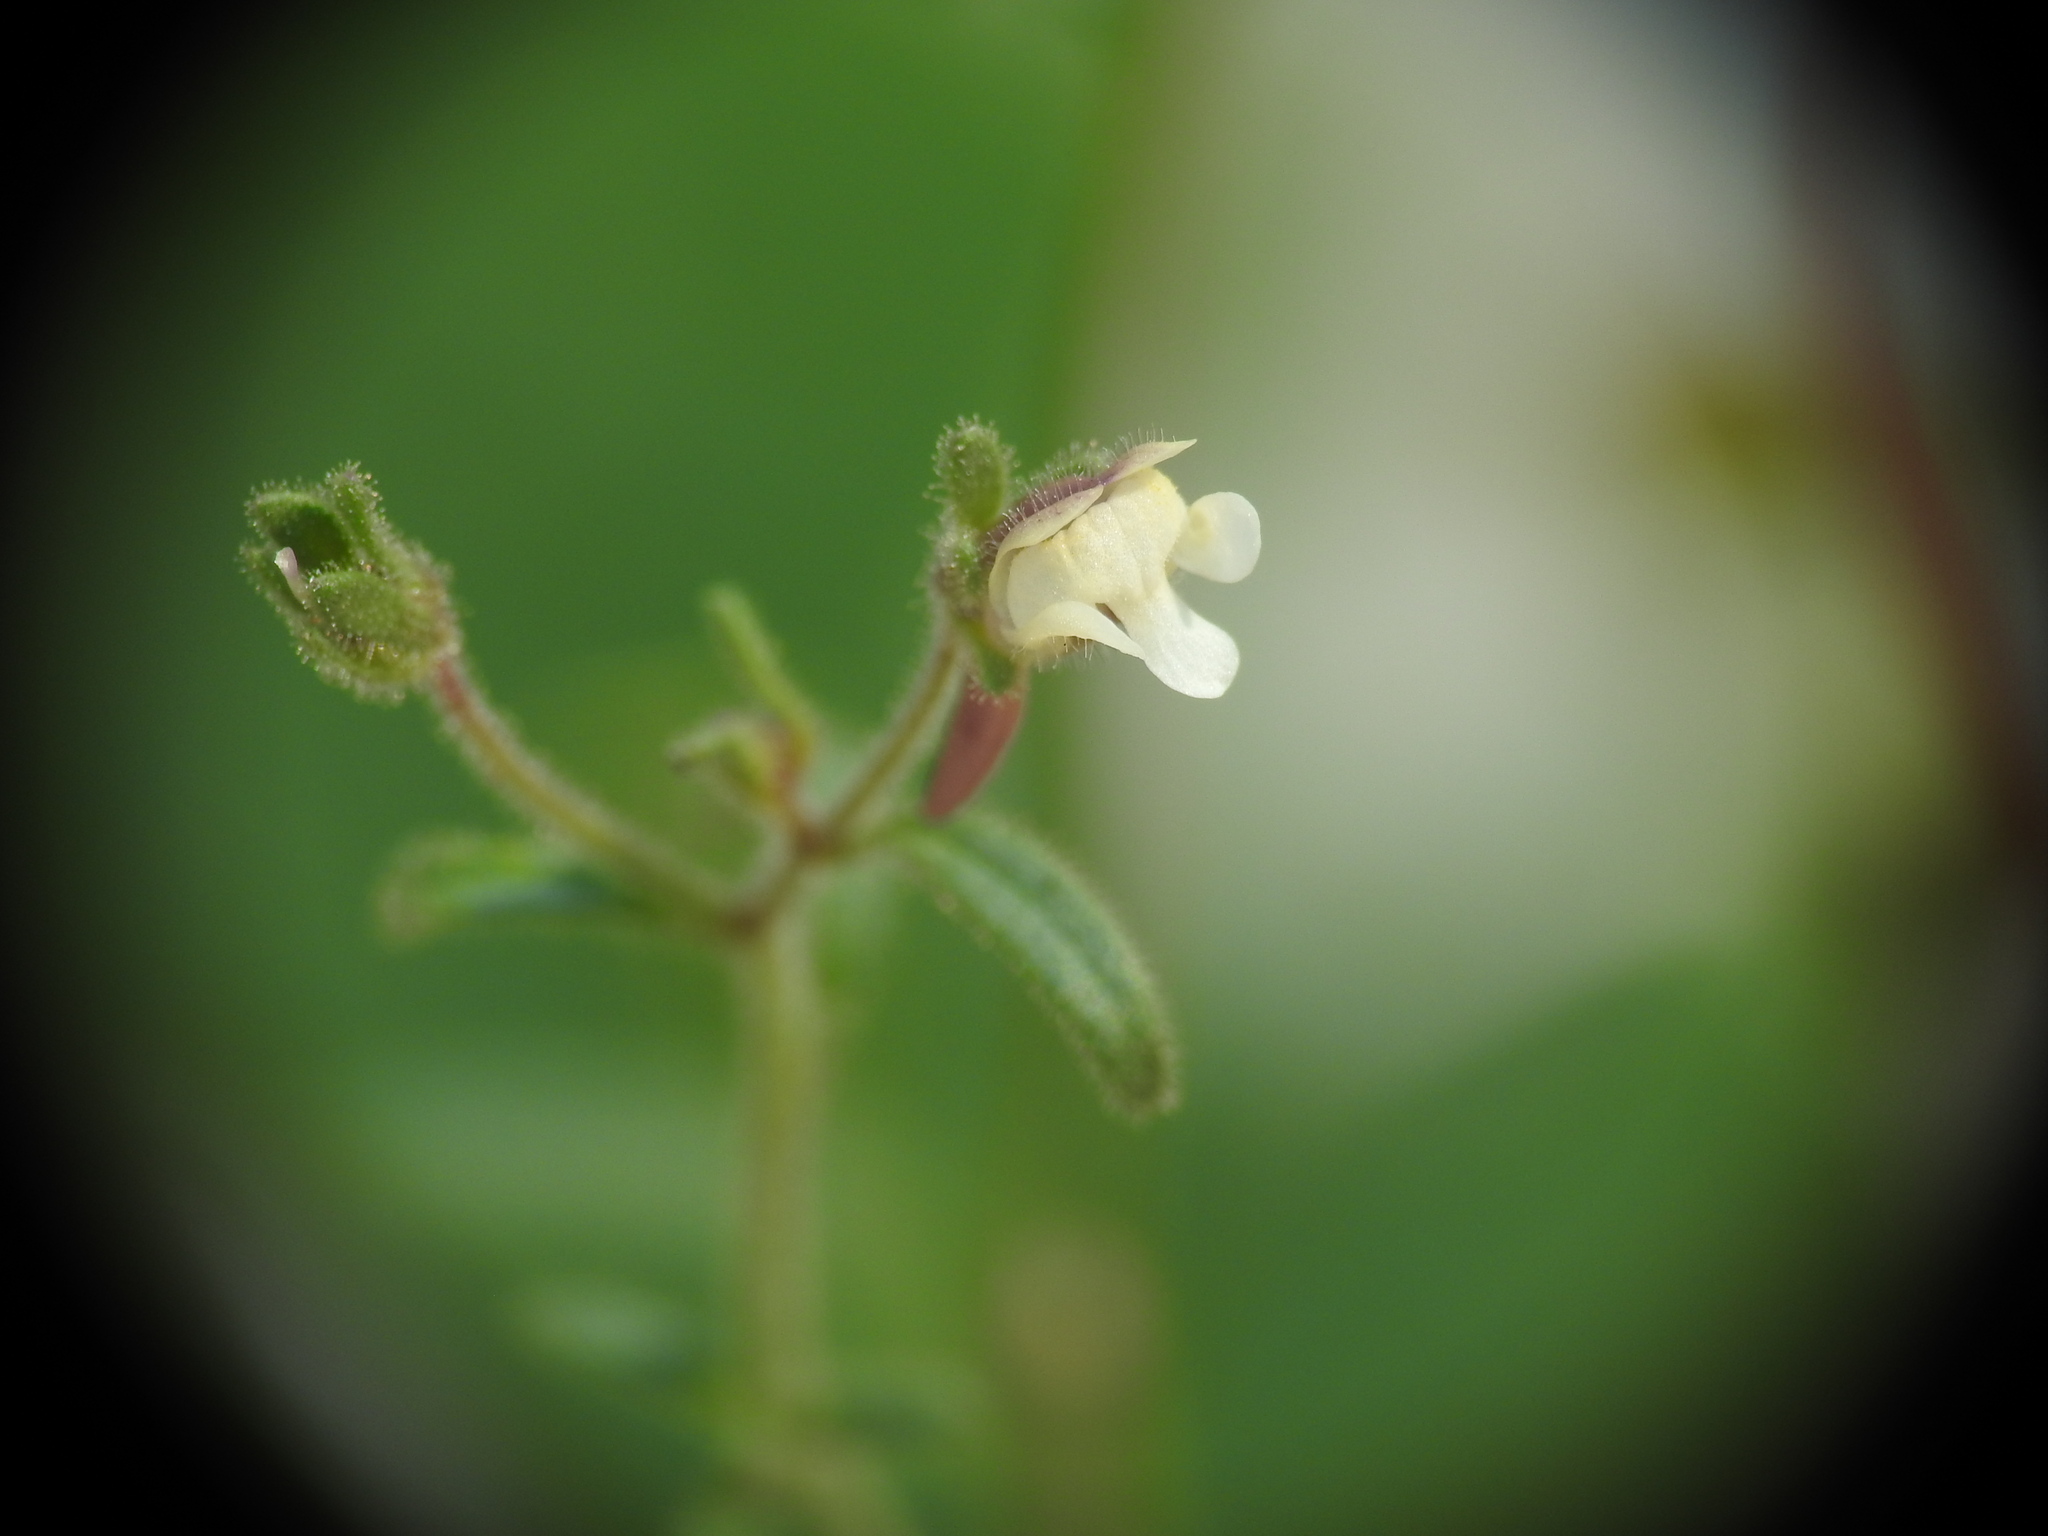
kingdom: Plantae
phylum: Tracheophyta
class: Magnoliopsida
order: Lamiales
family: Plantaginaceae
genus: Chaenorhinum
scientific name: Chaenorhinum minus
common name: Dwarf snapdragon
